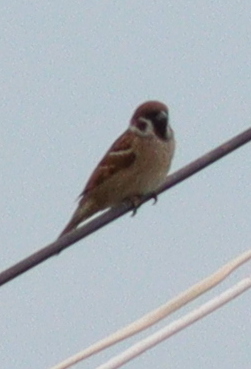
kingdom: Animalia
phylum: Chordata
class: Aves
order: Passeriformes
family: Passeridae
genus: Passer
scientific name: Passer montanus
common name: Eurasian tree sparrow
